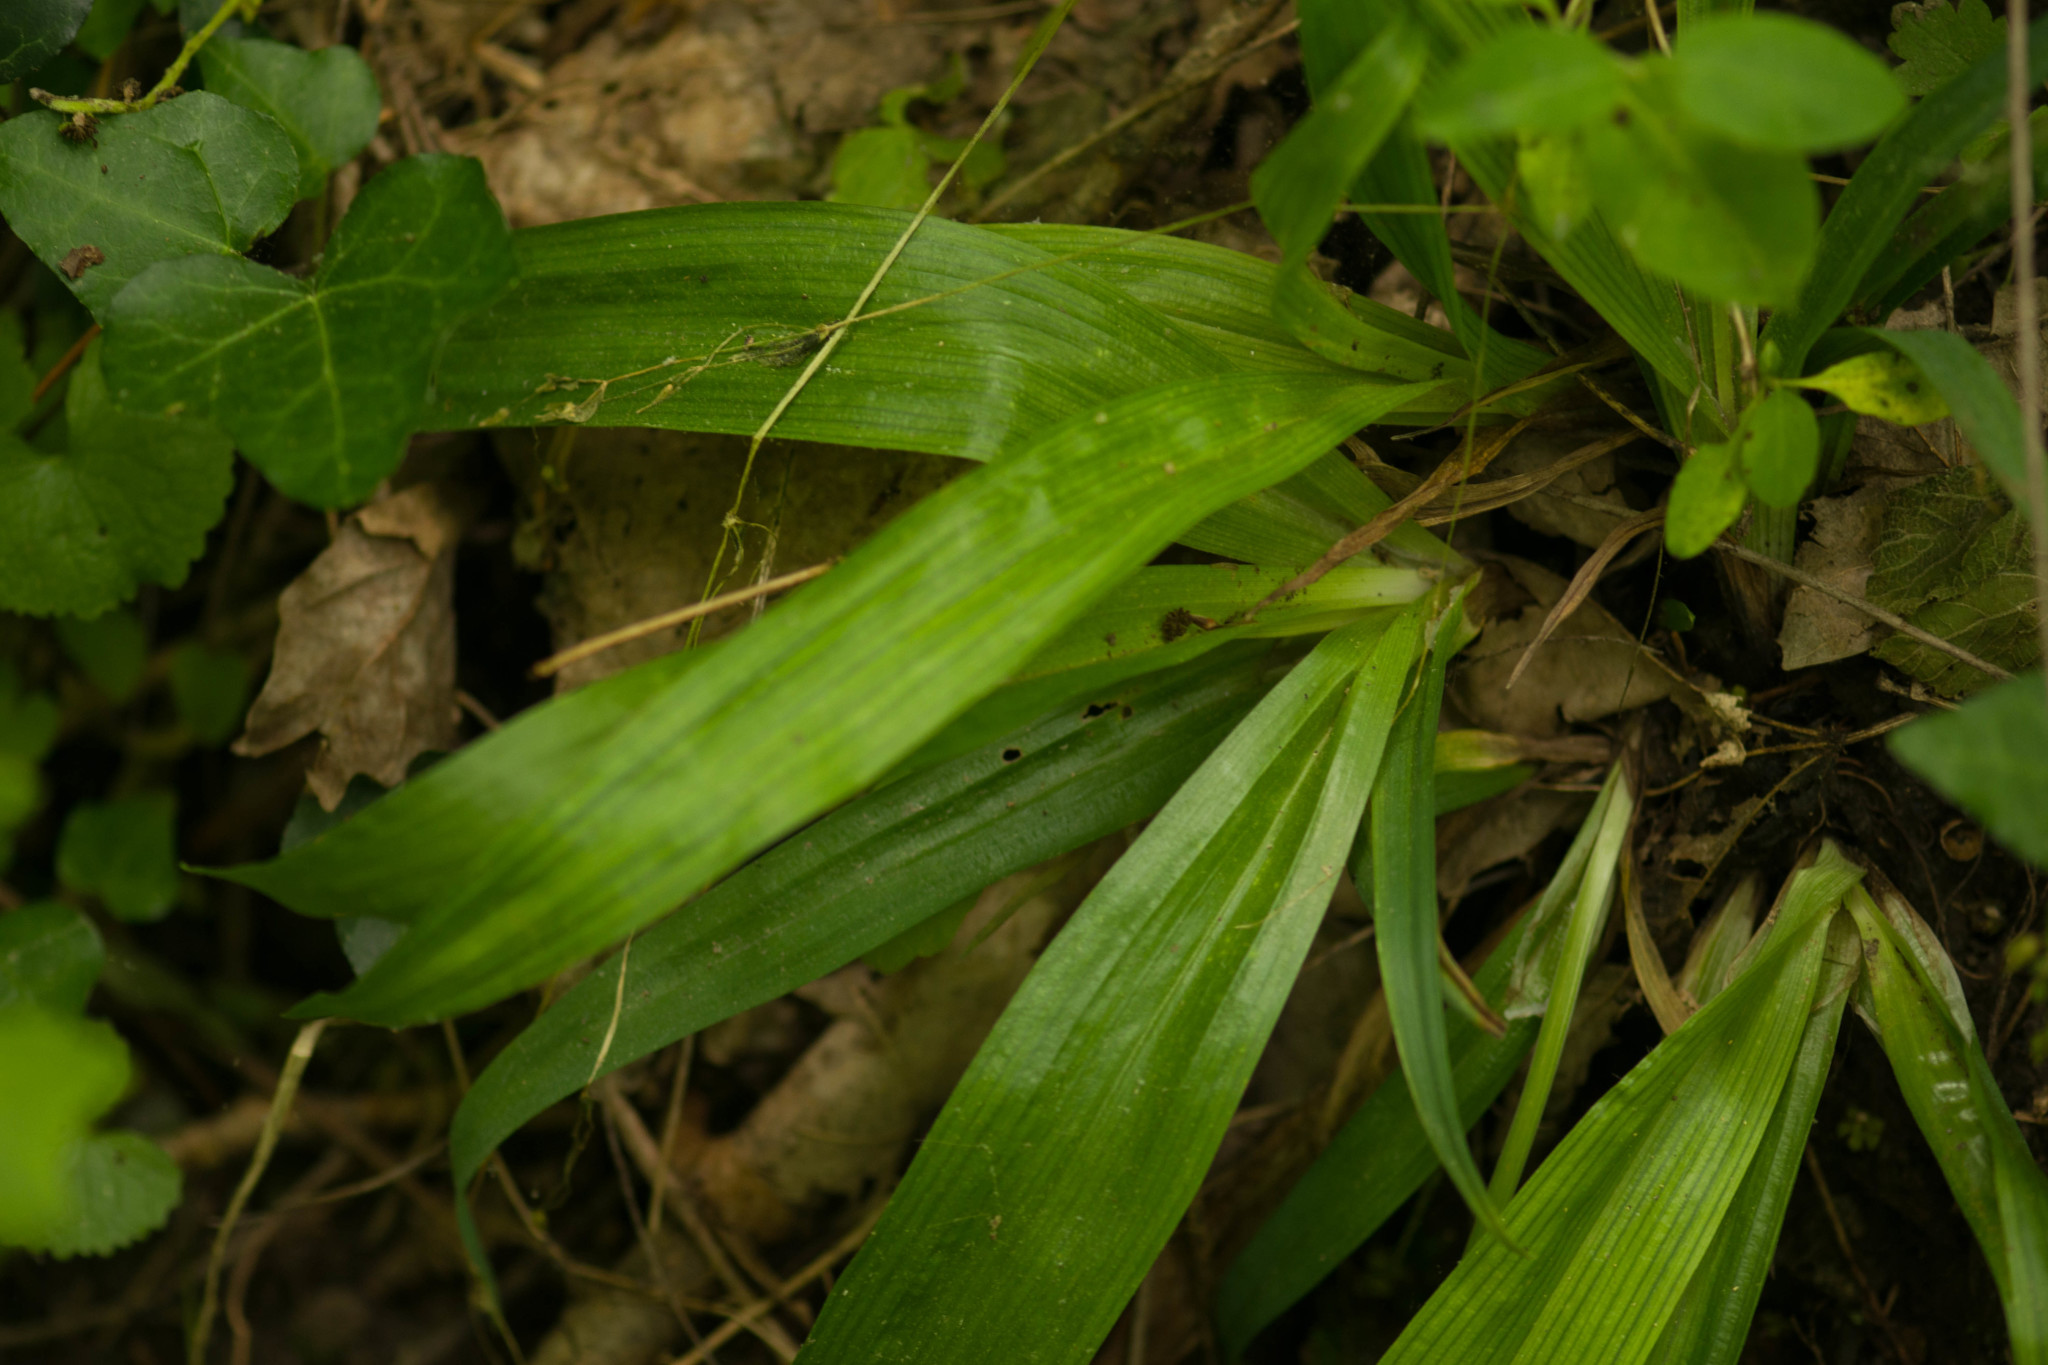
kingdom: Plantae
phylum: Tracheophyta
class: Liliopsida
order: Poales
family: Cyperaceae
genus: Carex
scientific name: Carex albursina
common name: Blunt-scale wood sedge
